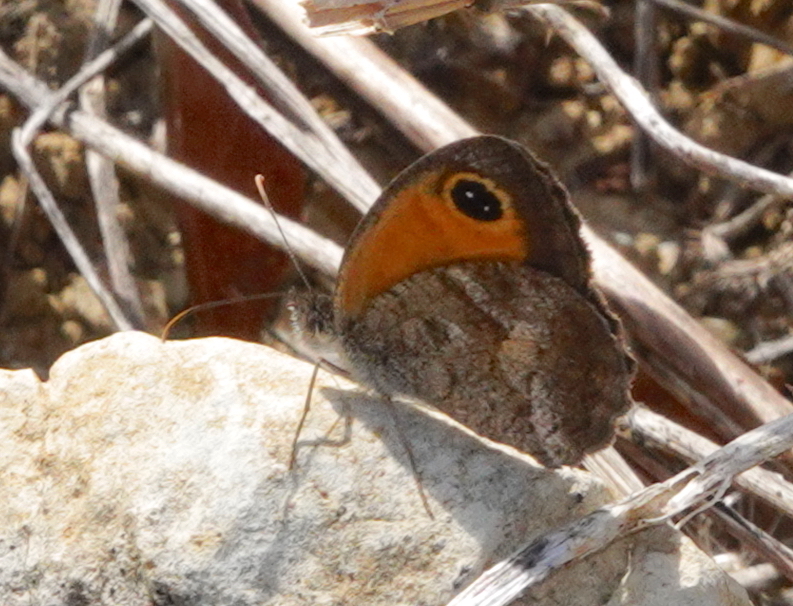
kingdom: Animalia
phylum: Arthropoda
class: Insecta
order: Lepidoptera
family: Nymphalidae
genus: Pyronia
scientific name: Pyronia cecilia
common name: Southern gatekeeper
